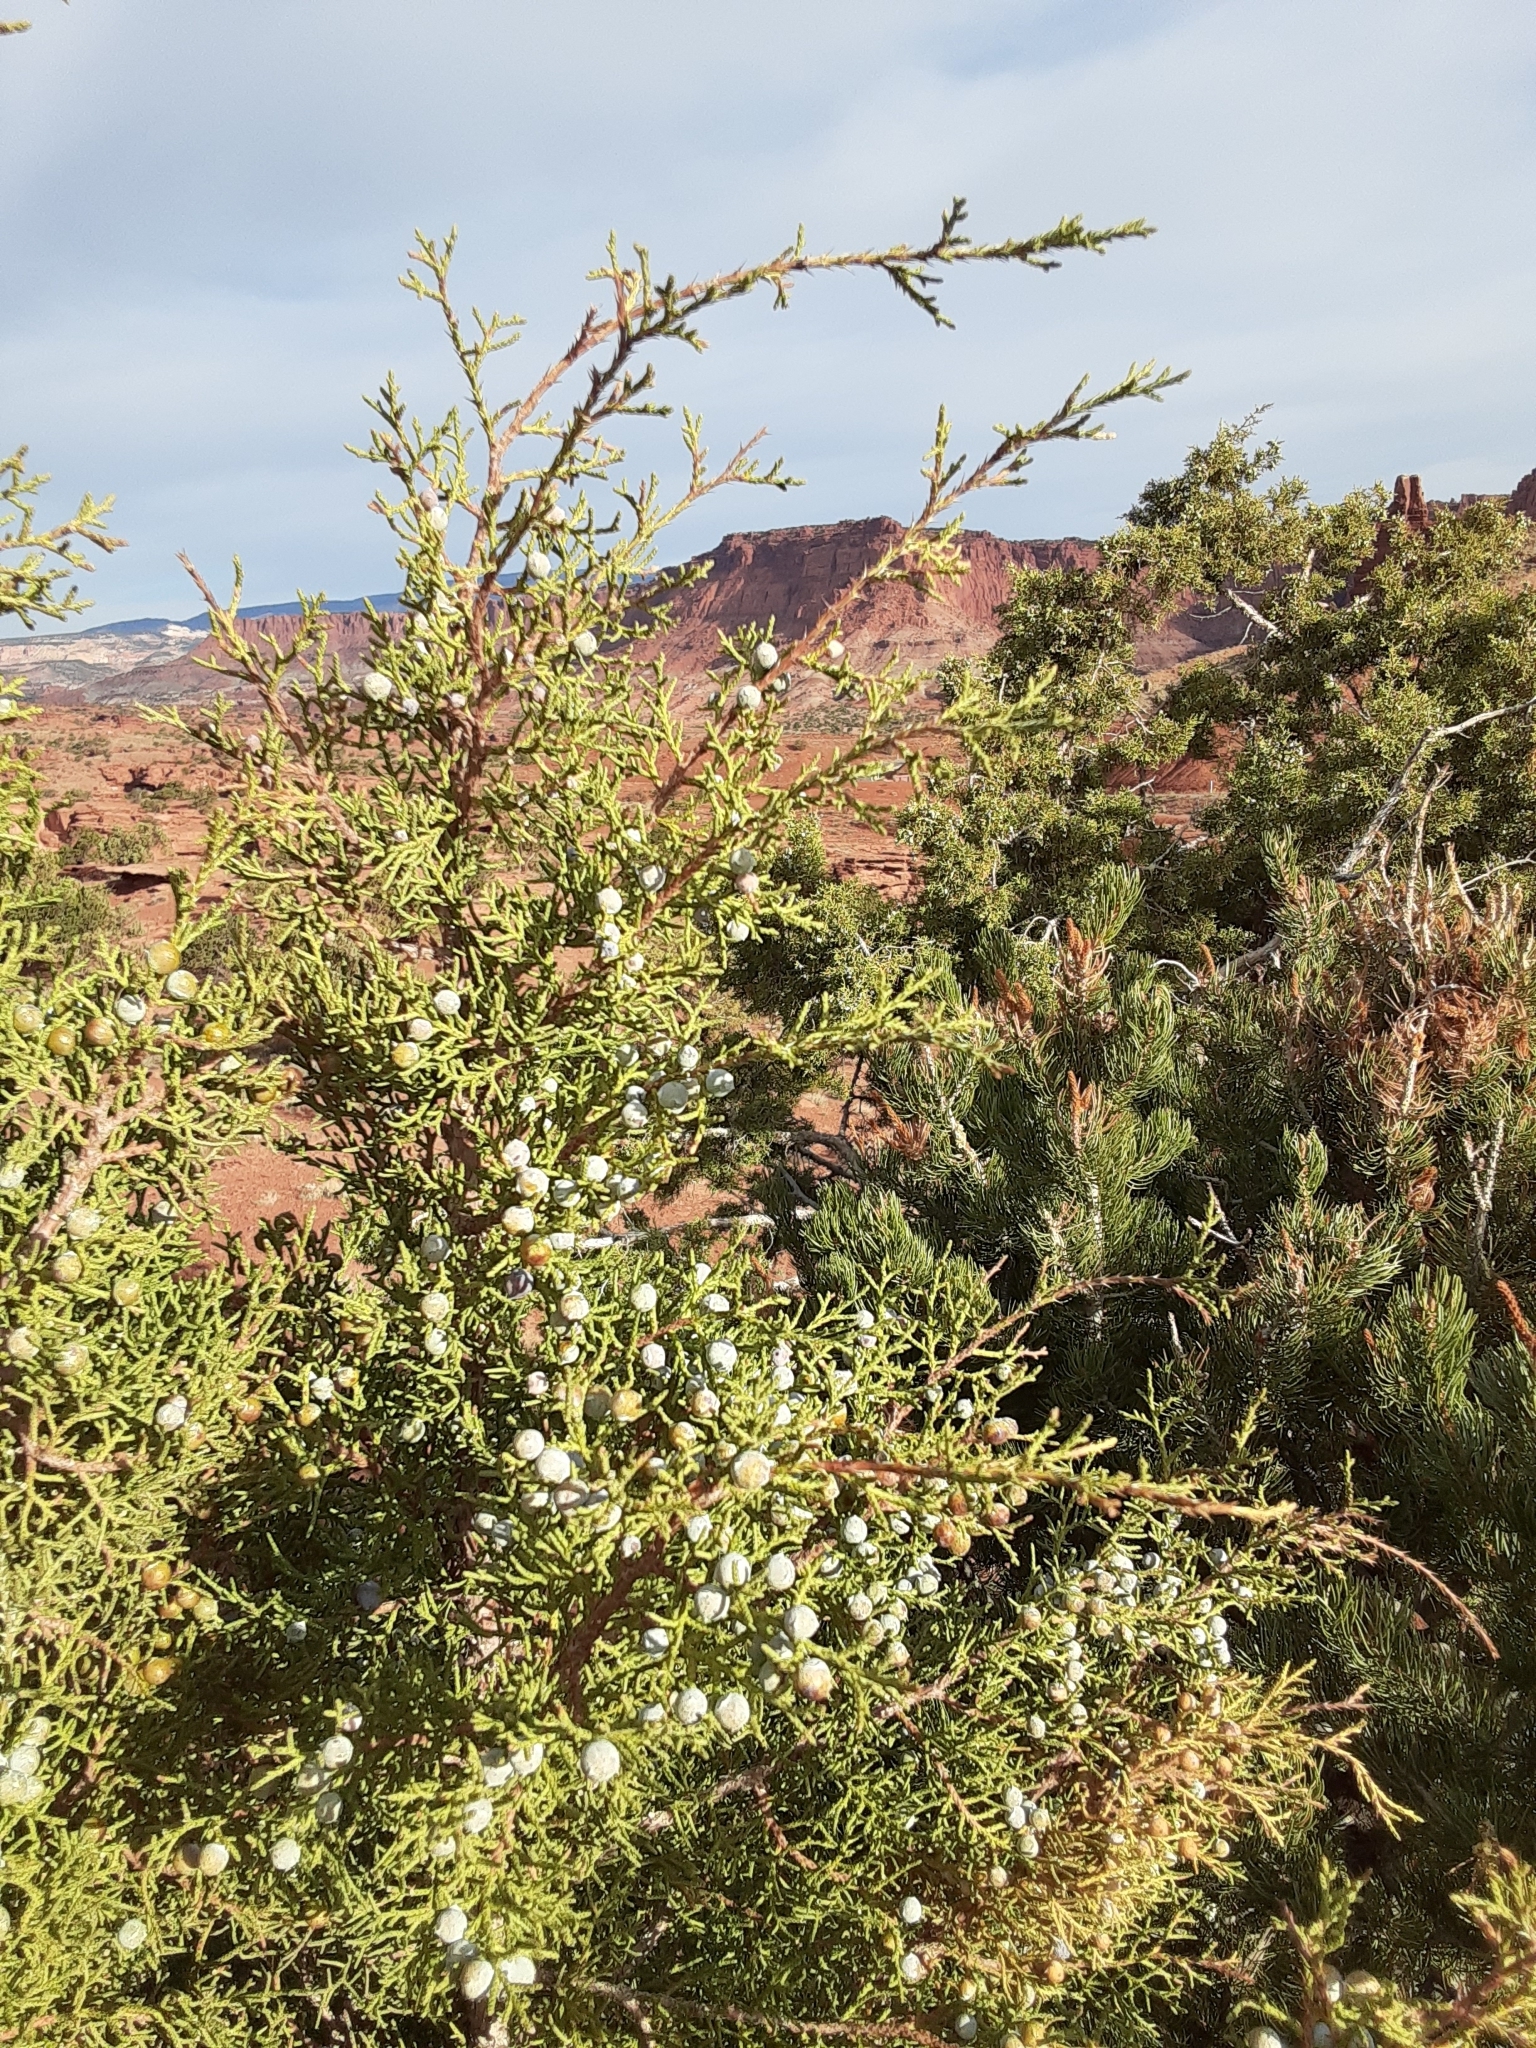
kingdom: Plantae
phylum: Tracheophyta
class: Pinopsida
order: Pinales
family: Cupressaceae
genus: Juniperus
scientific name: Juniperus osteosperma
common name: Utah juniper
